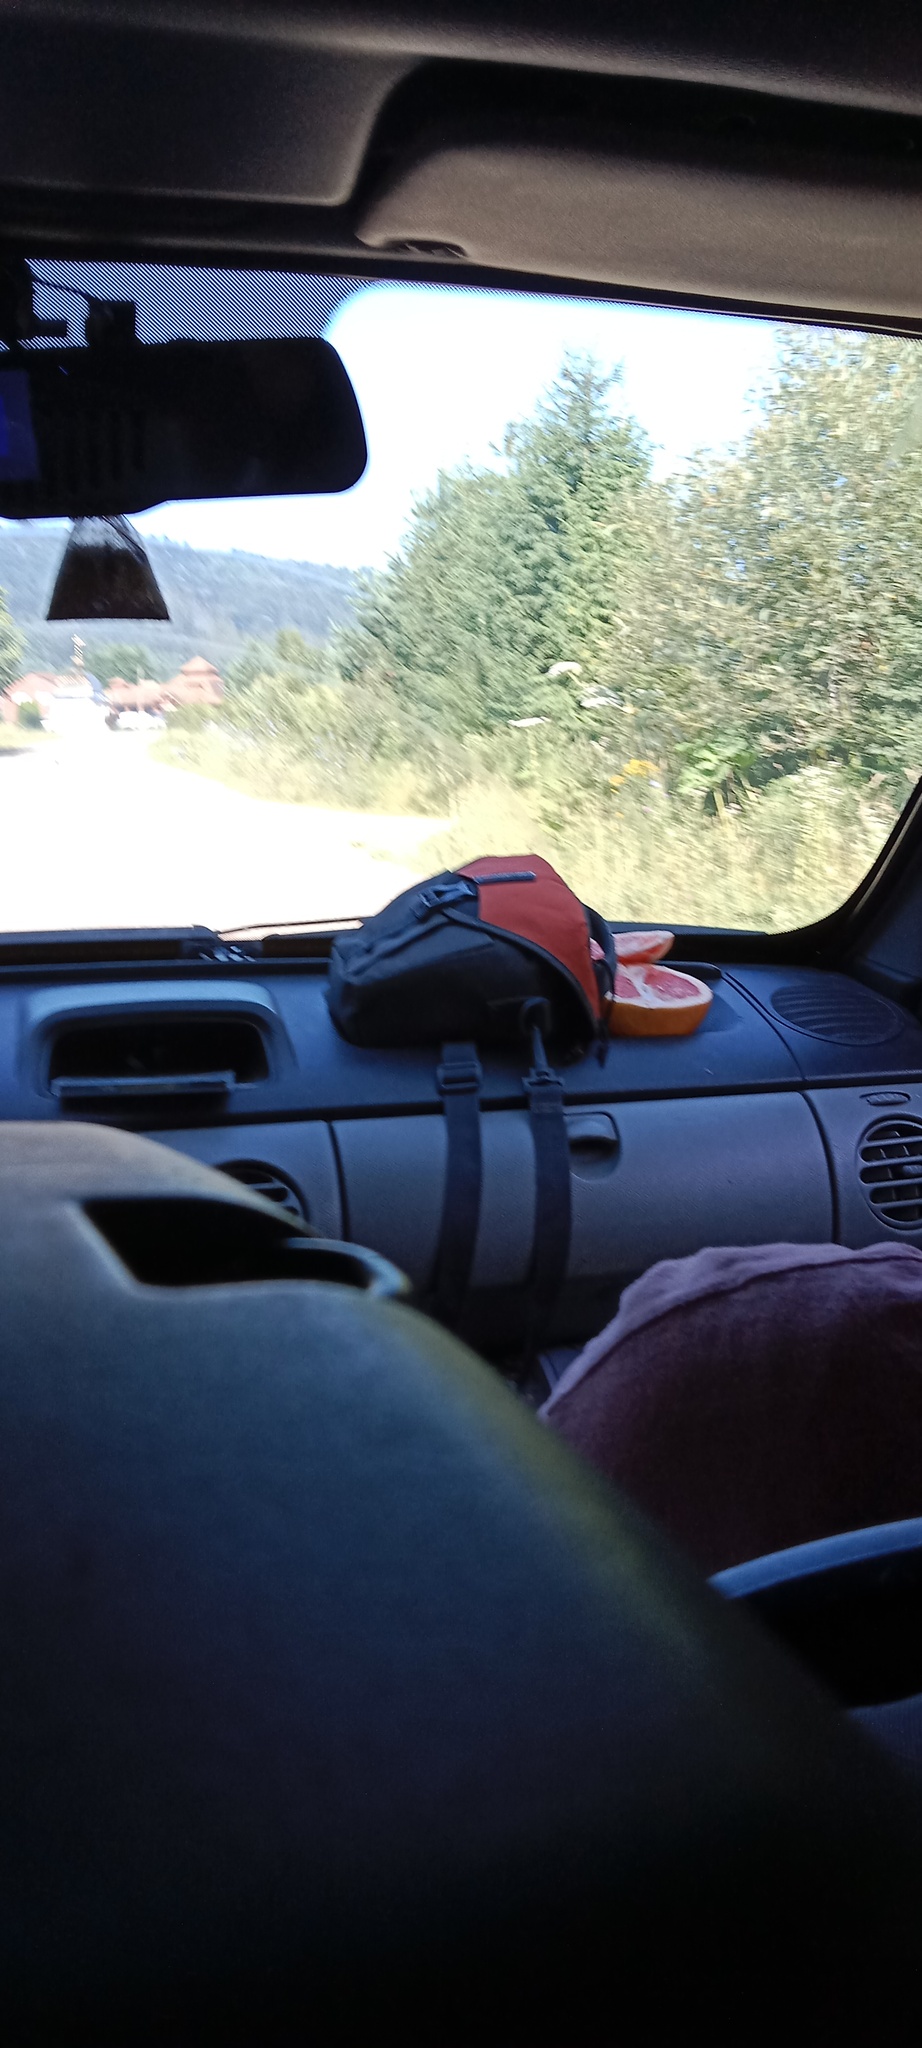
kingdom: Plantae
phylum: Tracheophyta
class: Magnoliopsida
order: Apiales
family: Apiaceae
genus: Heracleum
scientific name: Heracleum sosnowskyi
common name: Sosnowsky's hogweed
